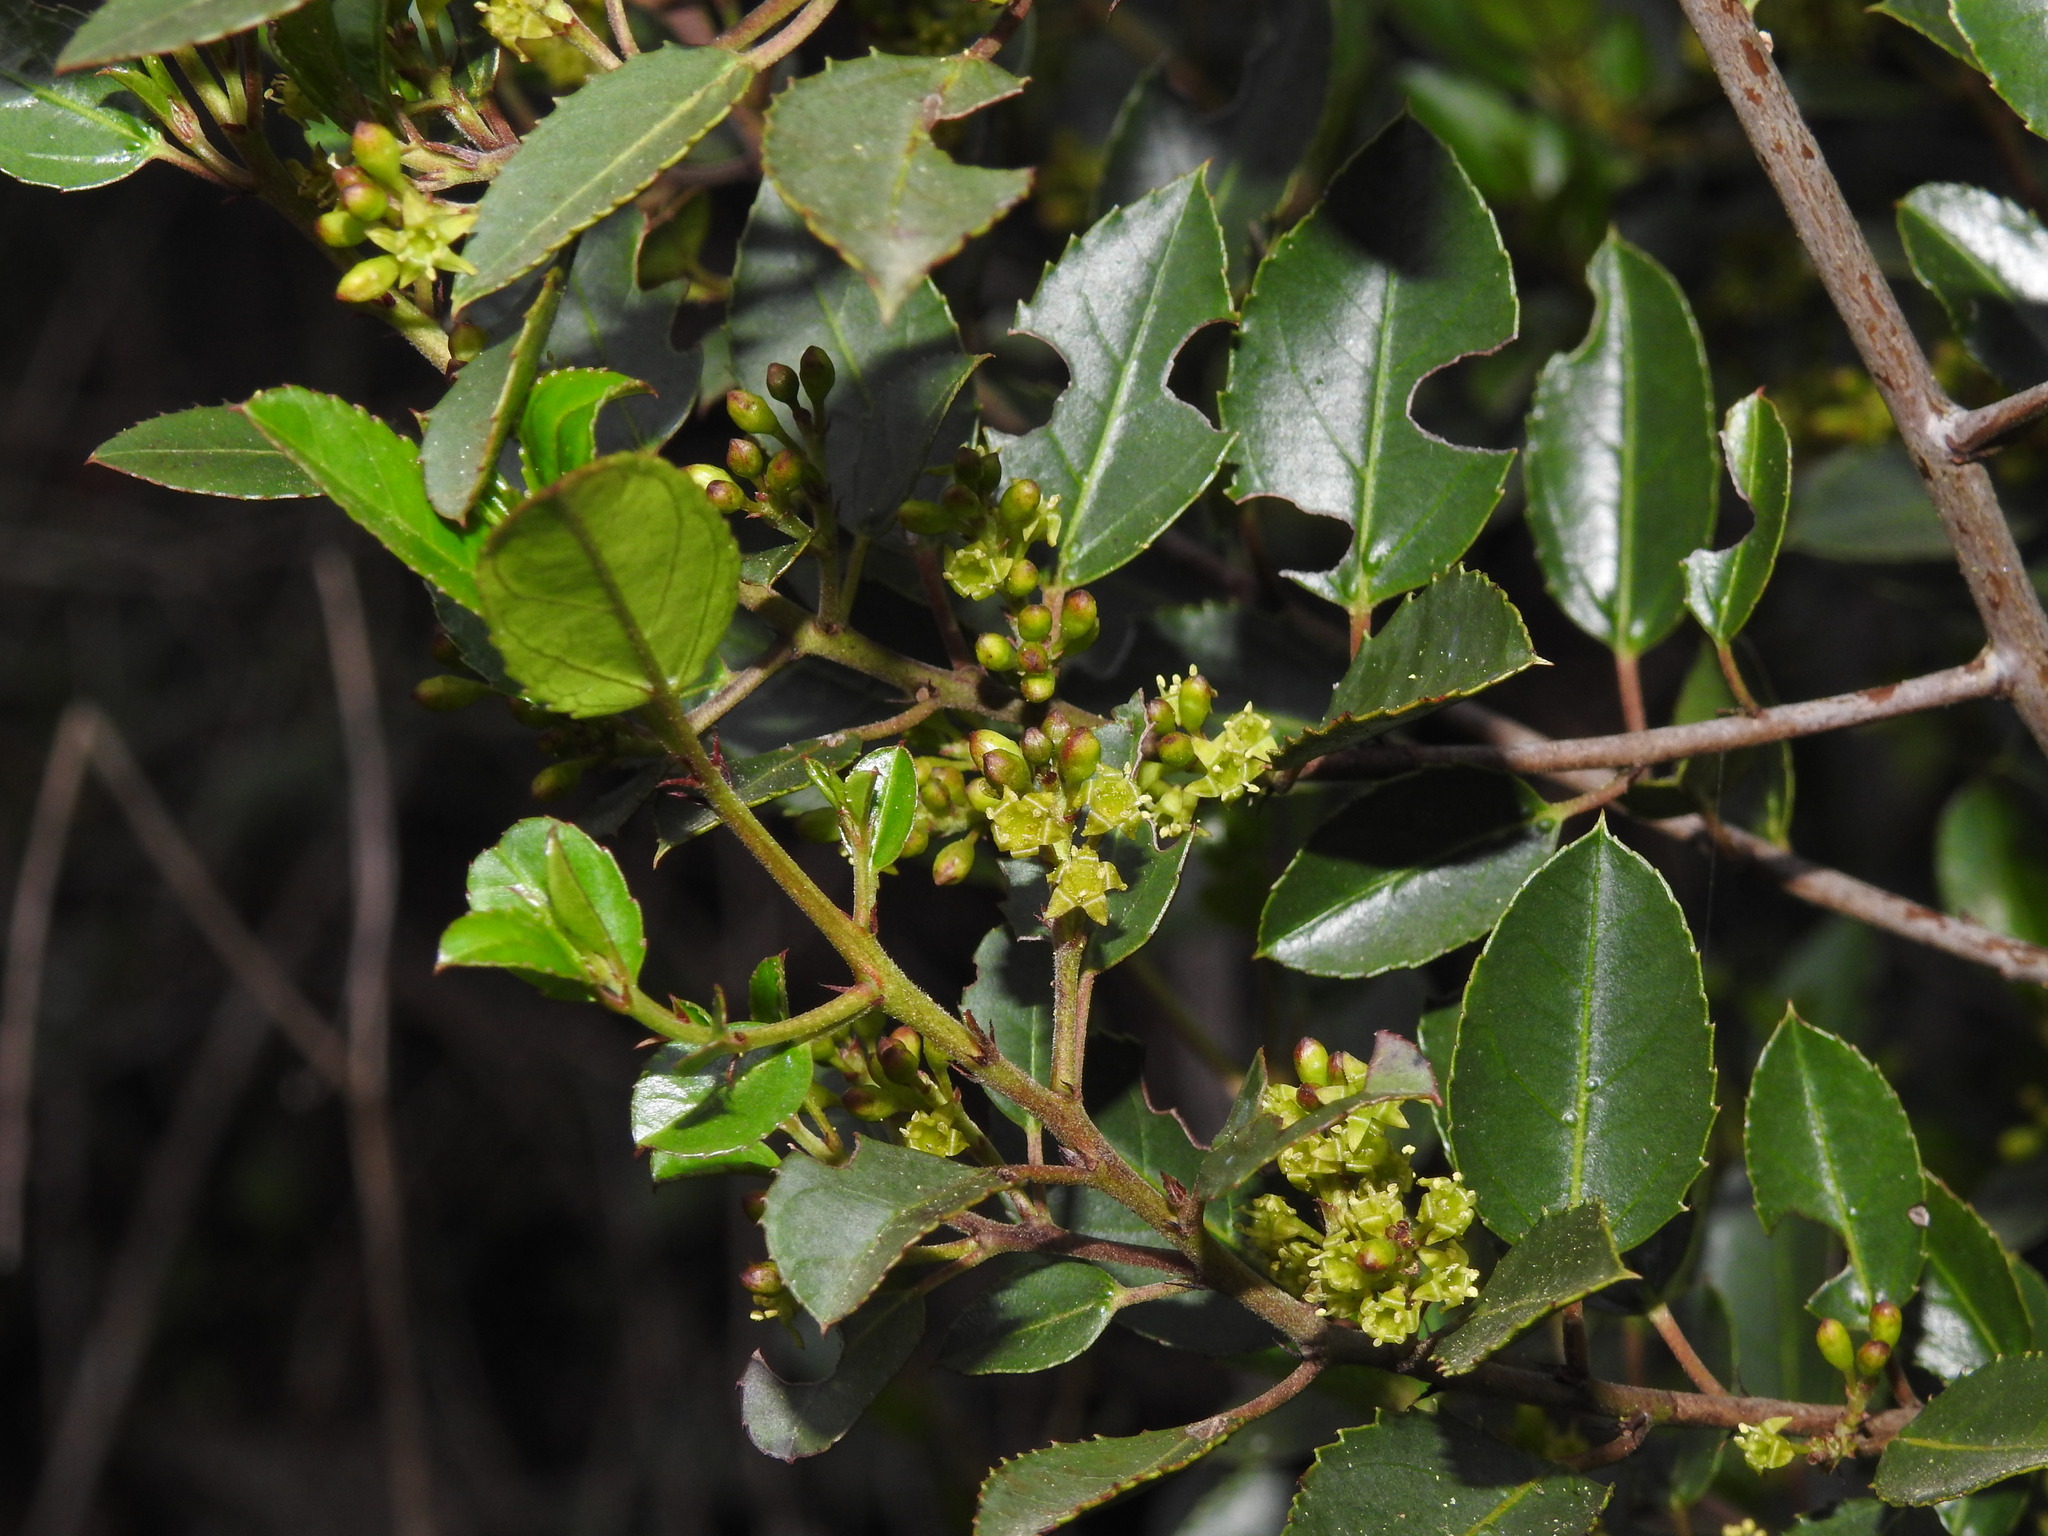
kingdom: Plantae
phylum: Tracheophyta
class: Magnoliopsida
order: Rosales
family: Rhamnaceae
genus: Rhamnus
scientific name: Rhamnus alaternus
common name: Mediterranean buckthorn
